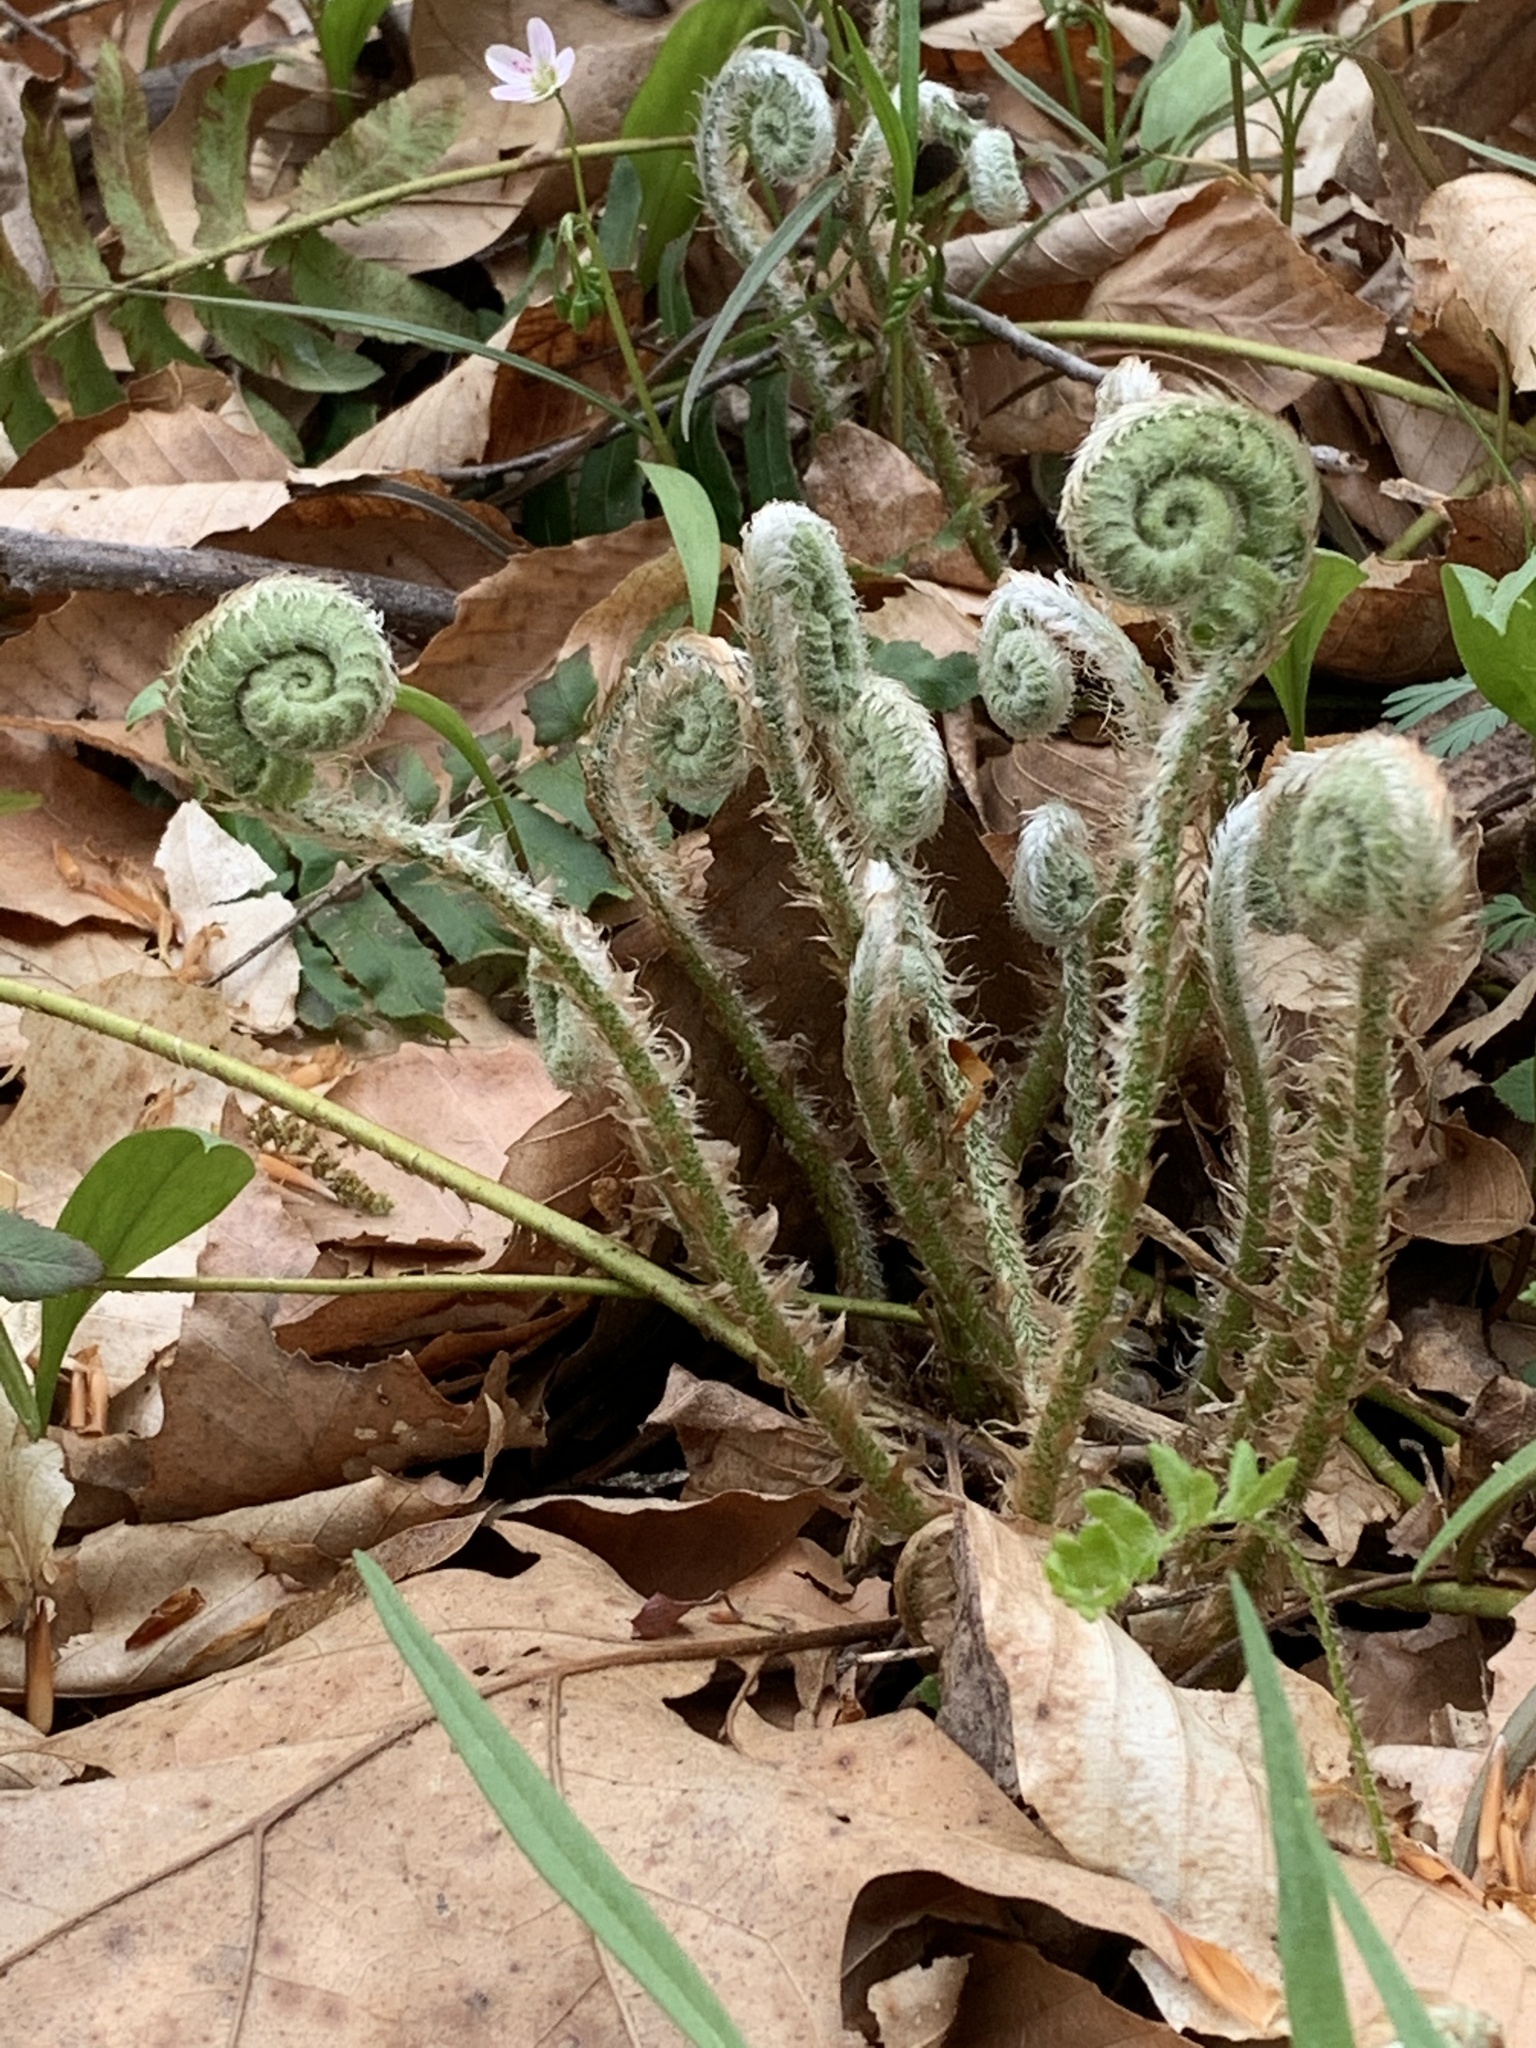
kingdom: Plantae
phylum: Tracheophyta
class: Polypodiopsida
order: Polypodiales
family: Dryopteridaceae
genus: Polystichum
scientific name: Polystichum acrostichoides
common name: Christmas fern
